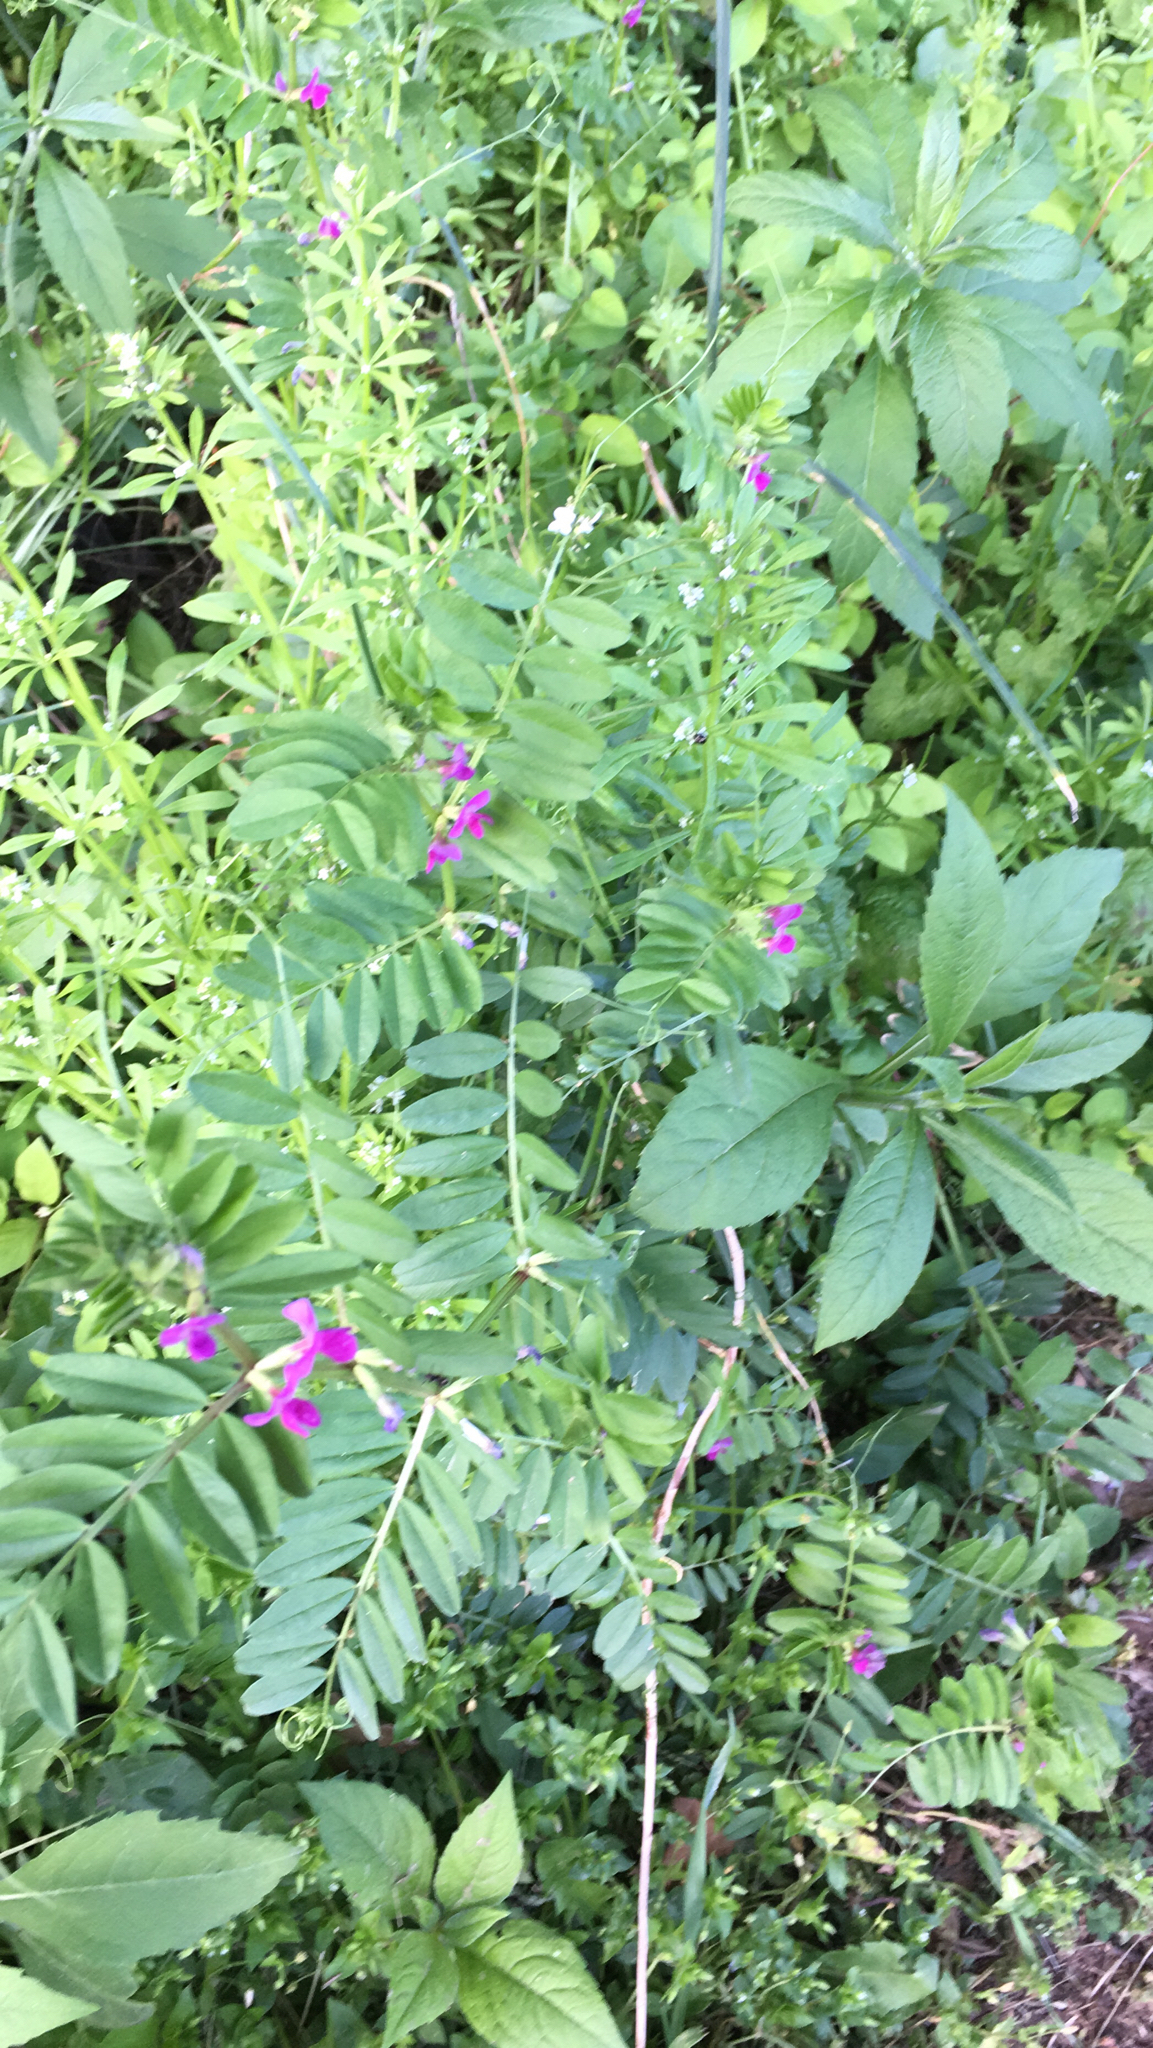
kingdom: Plantae
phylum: Tracheophyta
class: Magnoliopsida
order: Fabales
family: Fabaceae
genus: Vicia
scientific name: Vicia sativa
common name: Garden vetch
